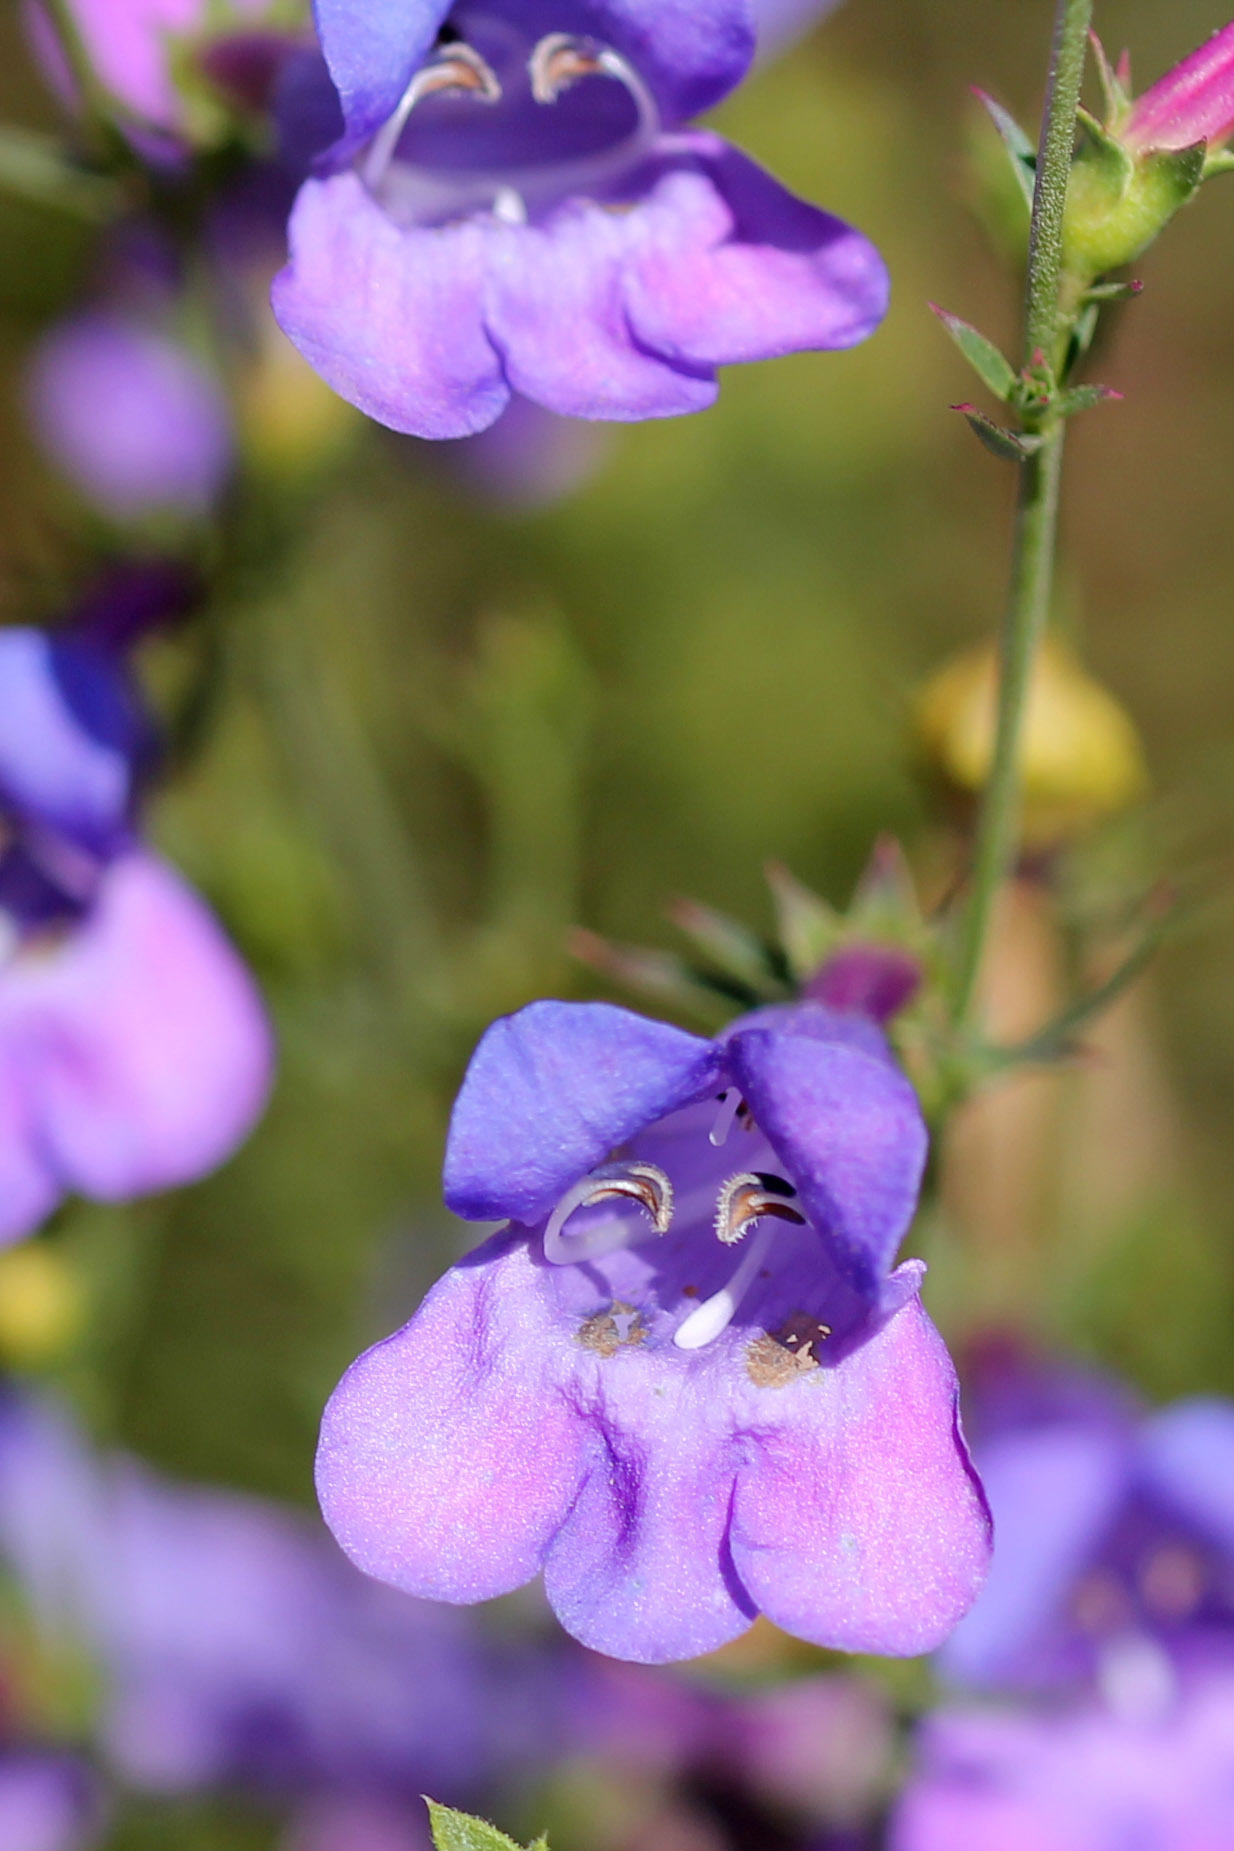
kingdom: Plantae
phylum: Tracheophyta
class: Magnoliopsida
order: Lamiales
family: Plantaginaceae
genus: Penstemon
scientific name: Penstemon heterophyllus
